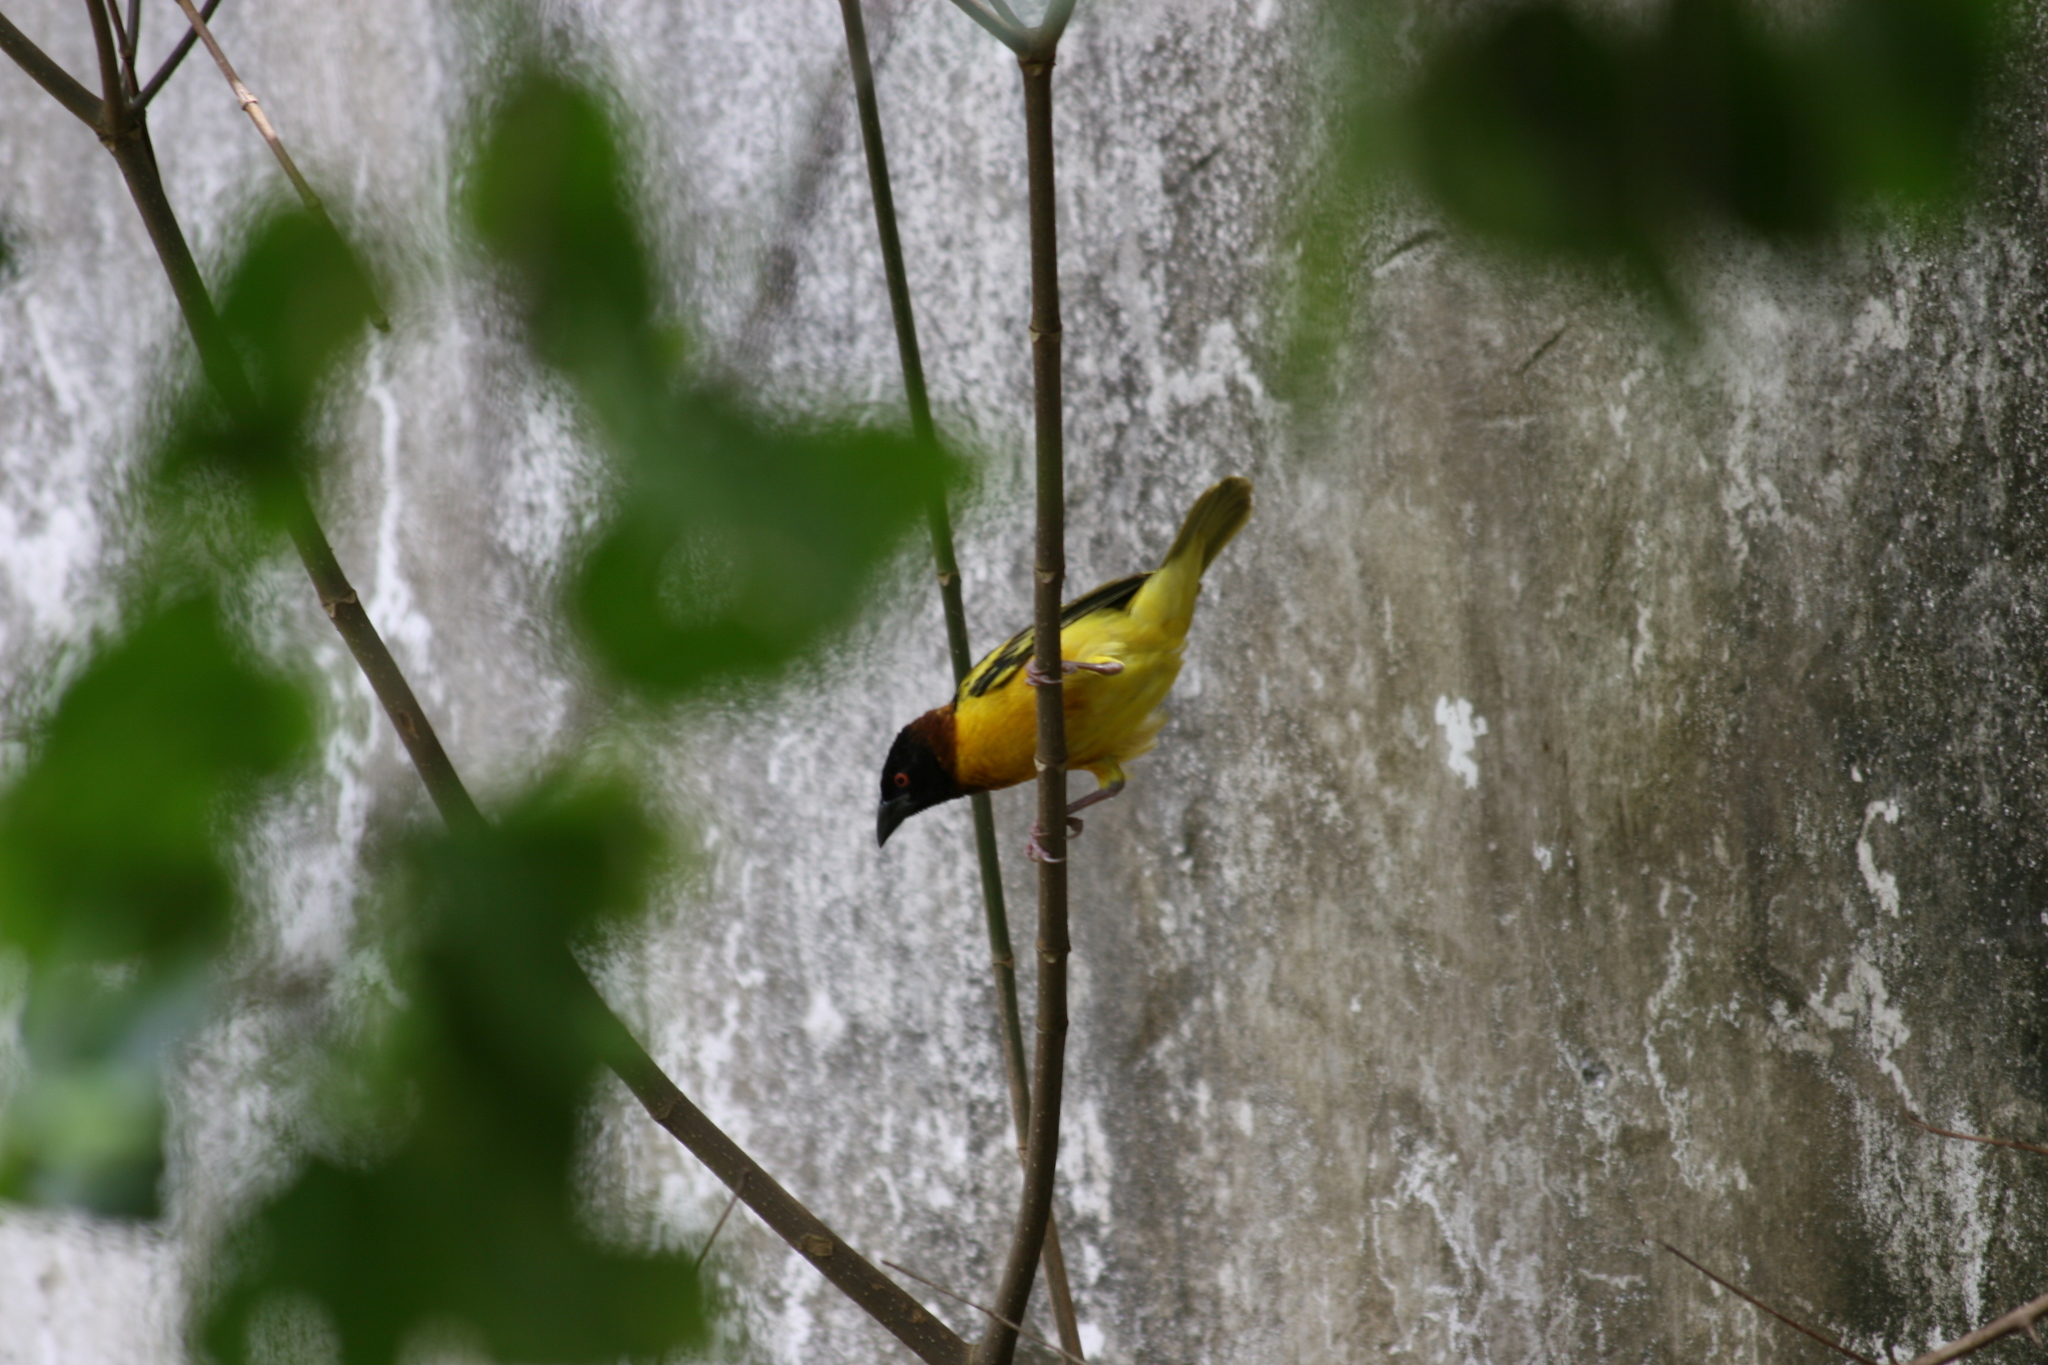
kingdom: Animalia
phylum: Chordata
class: Aves
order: Passeriformes
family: Ploceidae
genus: Ploceus
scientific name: Ploceus cucullatus
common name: Village weaver
